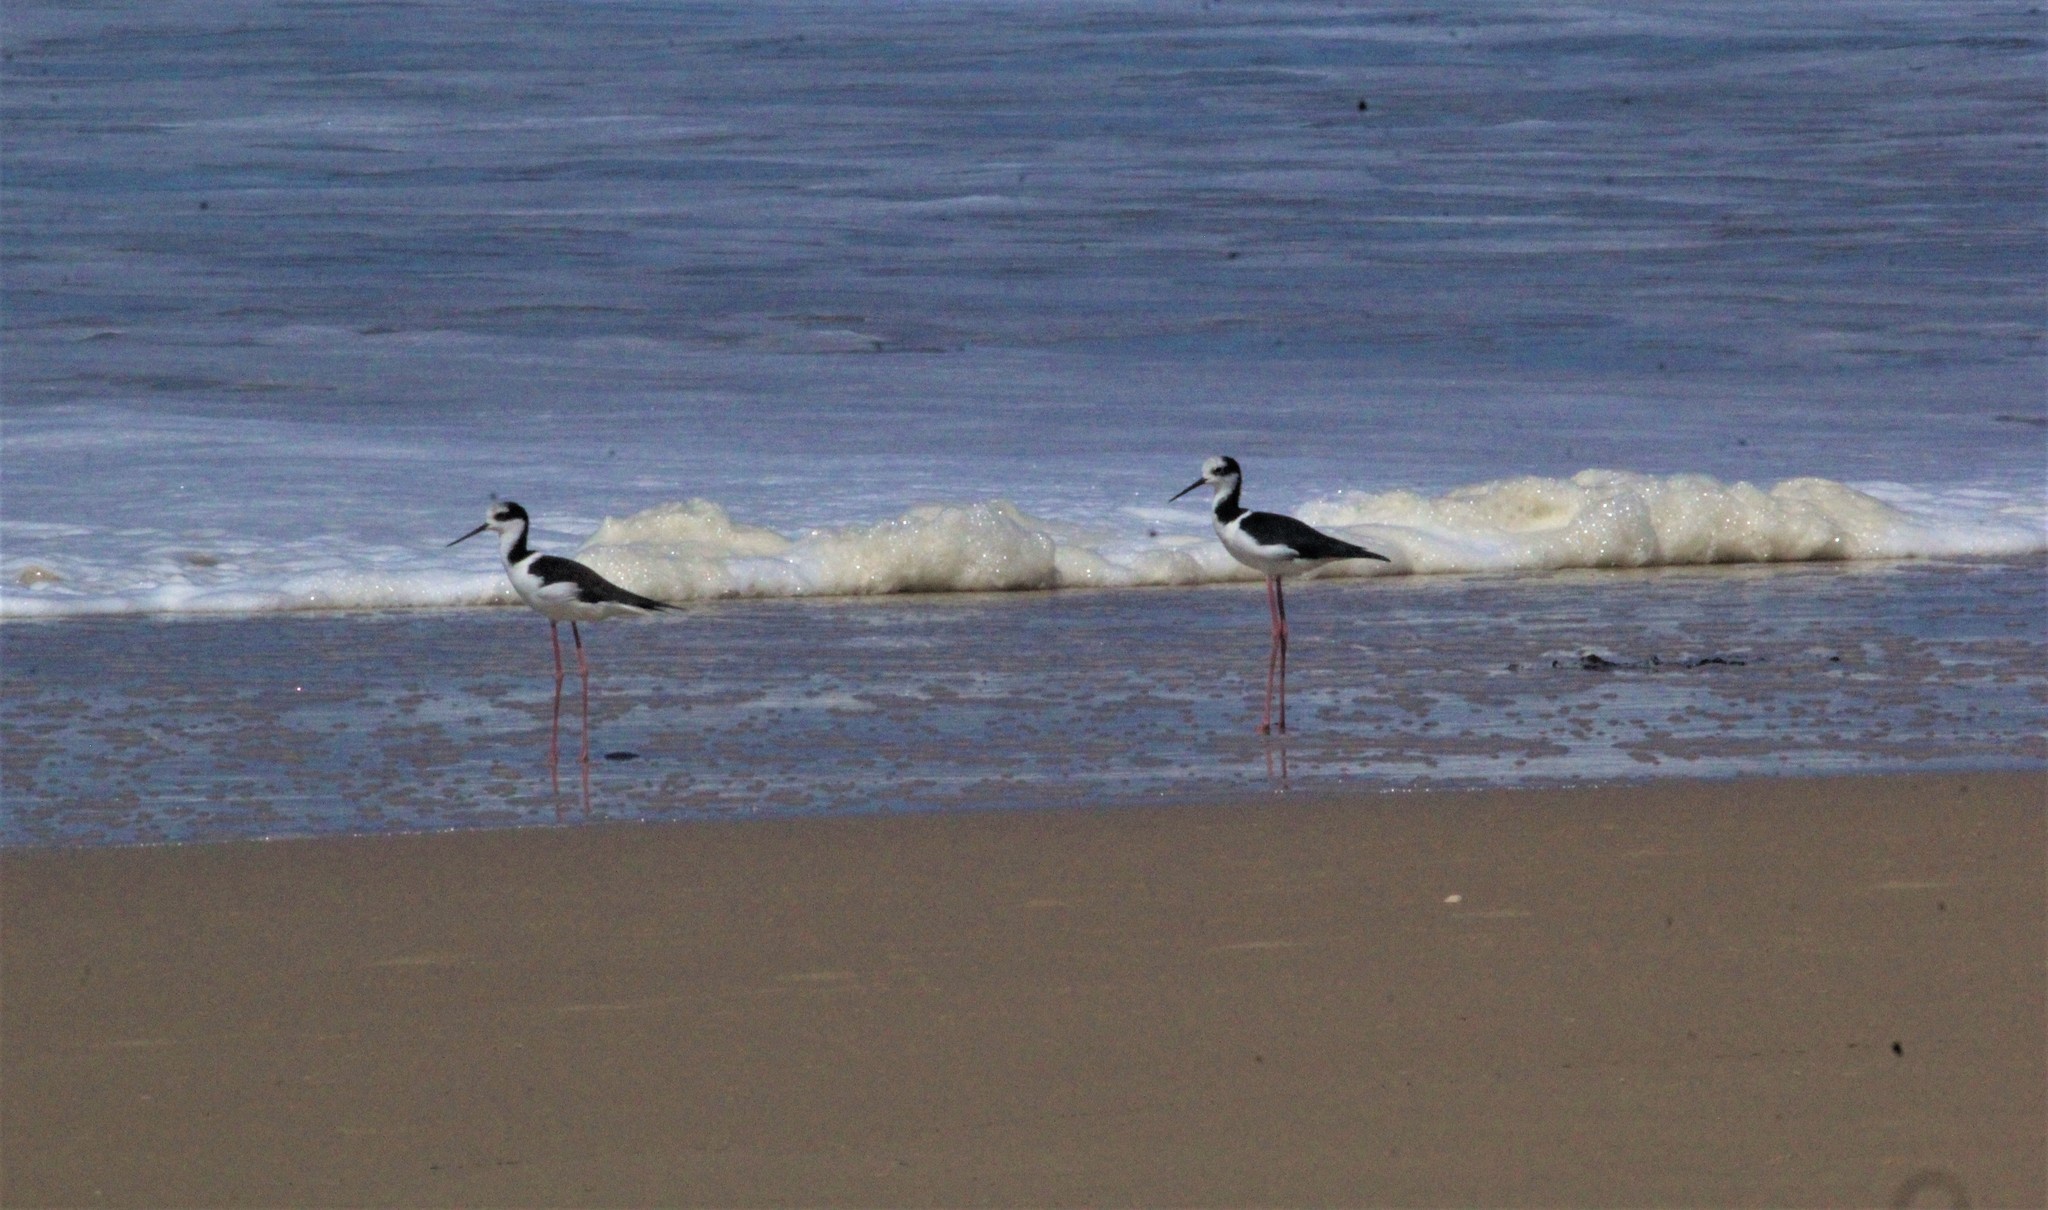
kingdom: Animalia
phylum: Chordata
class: Aves
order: Charadriiformes
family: Recurvirostridae
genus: Himantopus
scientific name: Himantopus mexicanus
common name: Black-necked stilt
